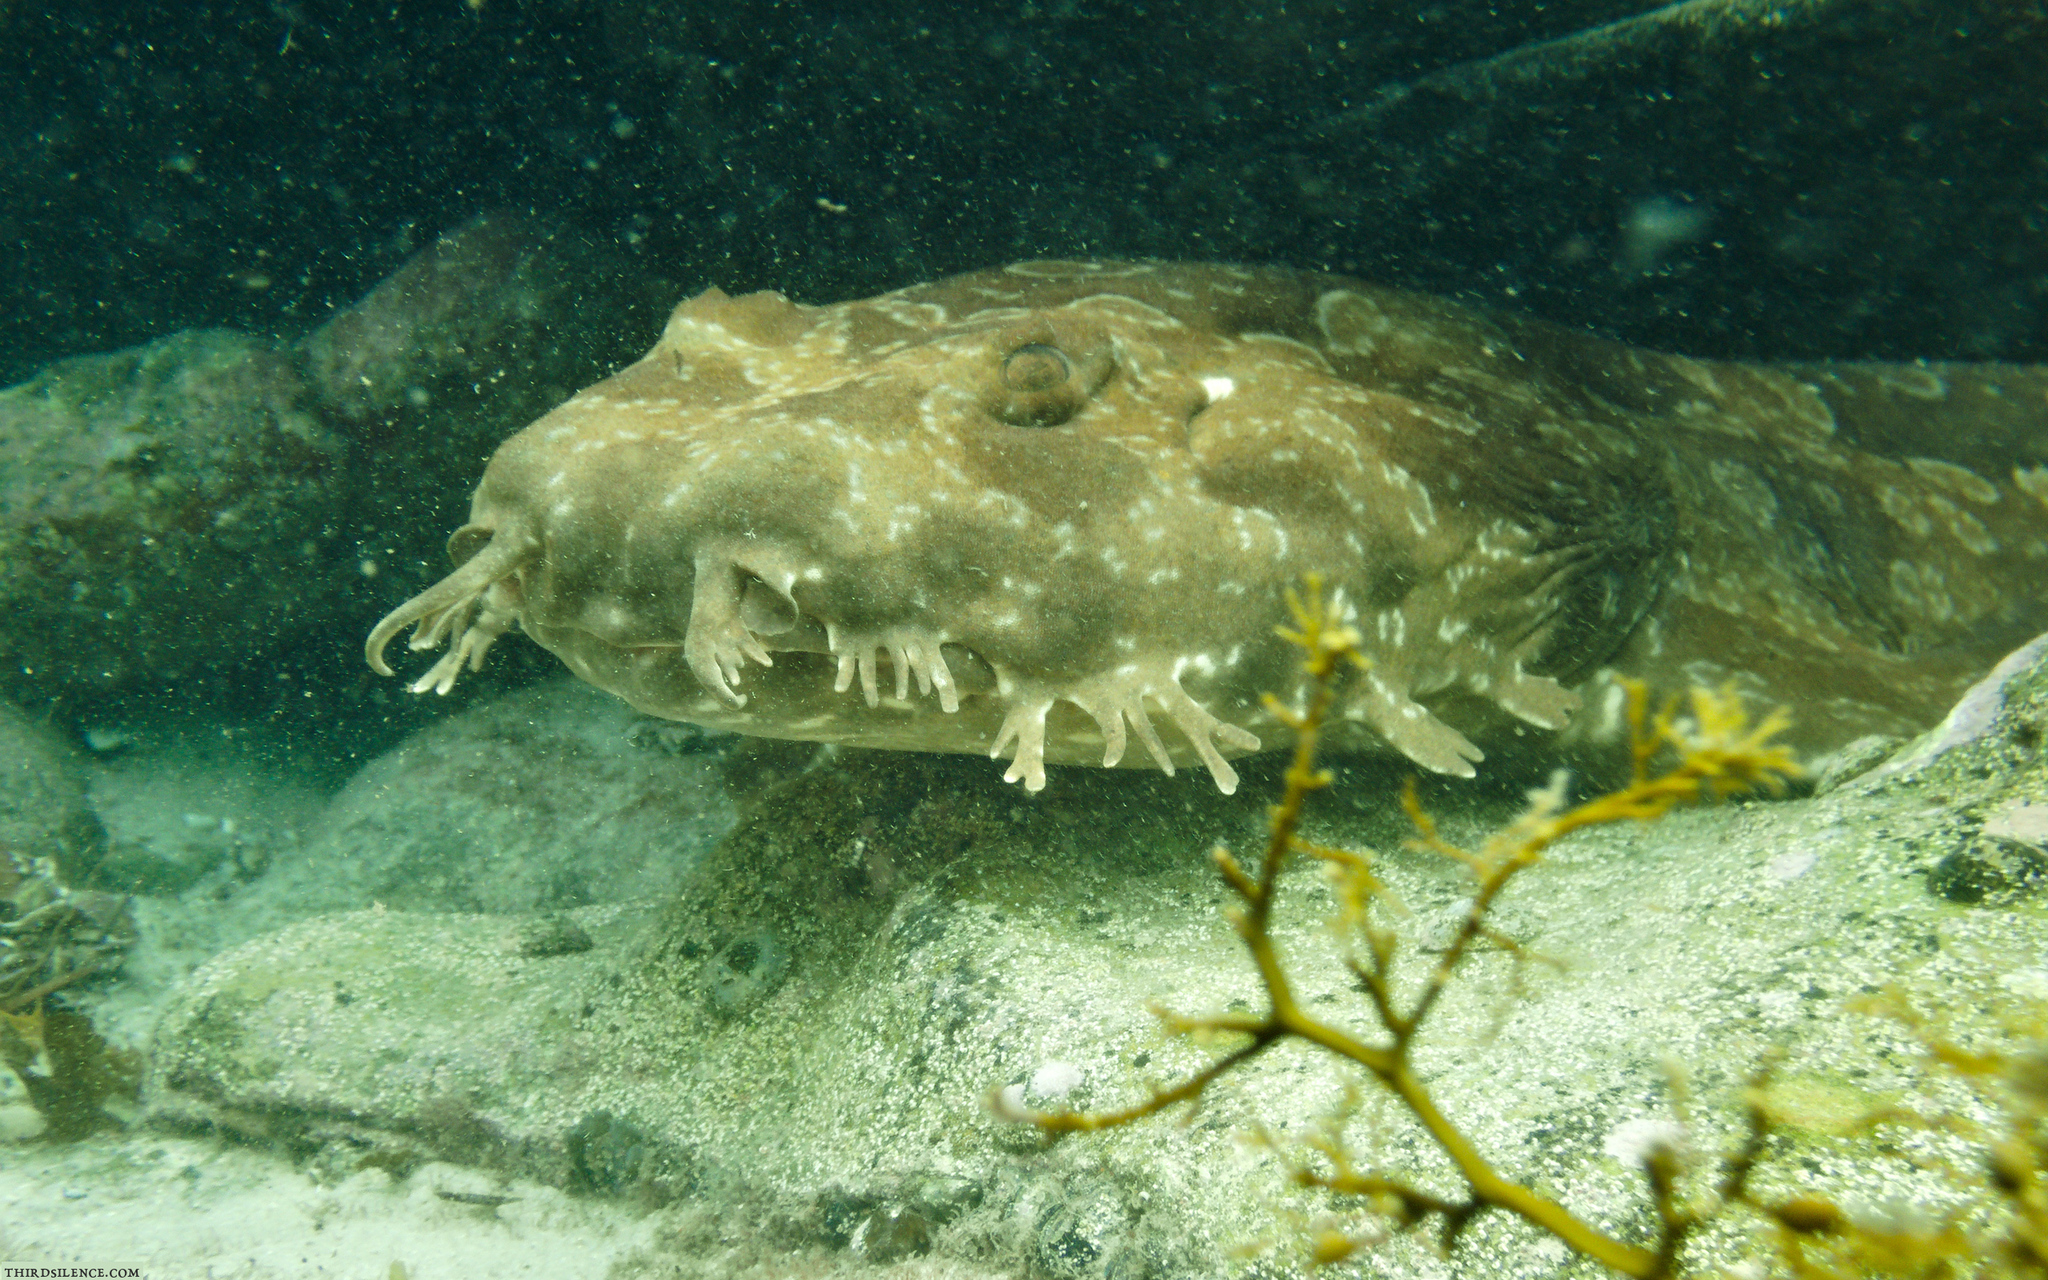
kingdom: Animalia
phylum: Chordata
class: Elasmobranchii
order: Orectolobiformes
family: Orectolobidae
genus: Orectolobus
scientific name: Orectolobus maculatus
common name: Spotted wobbegong
